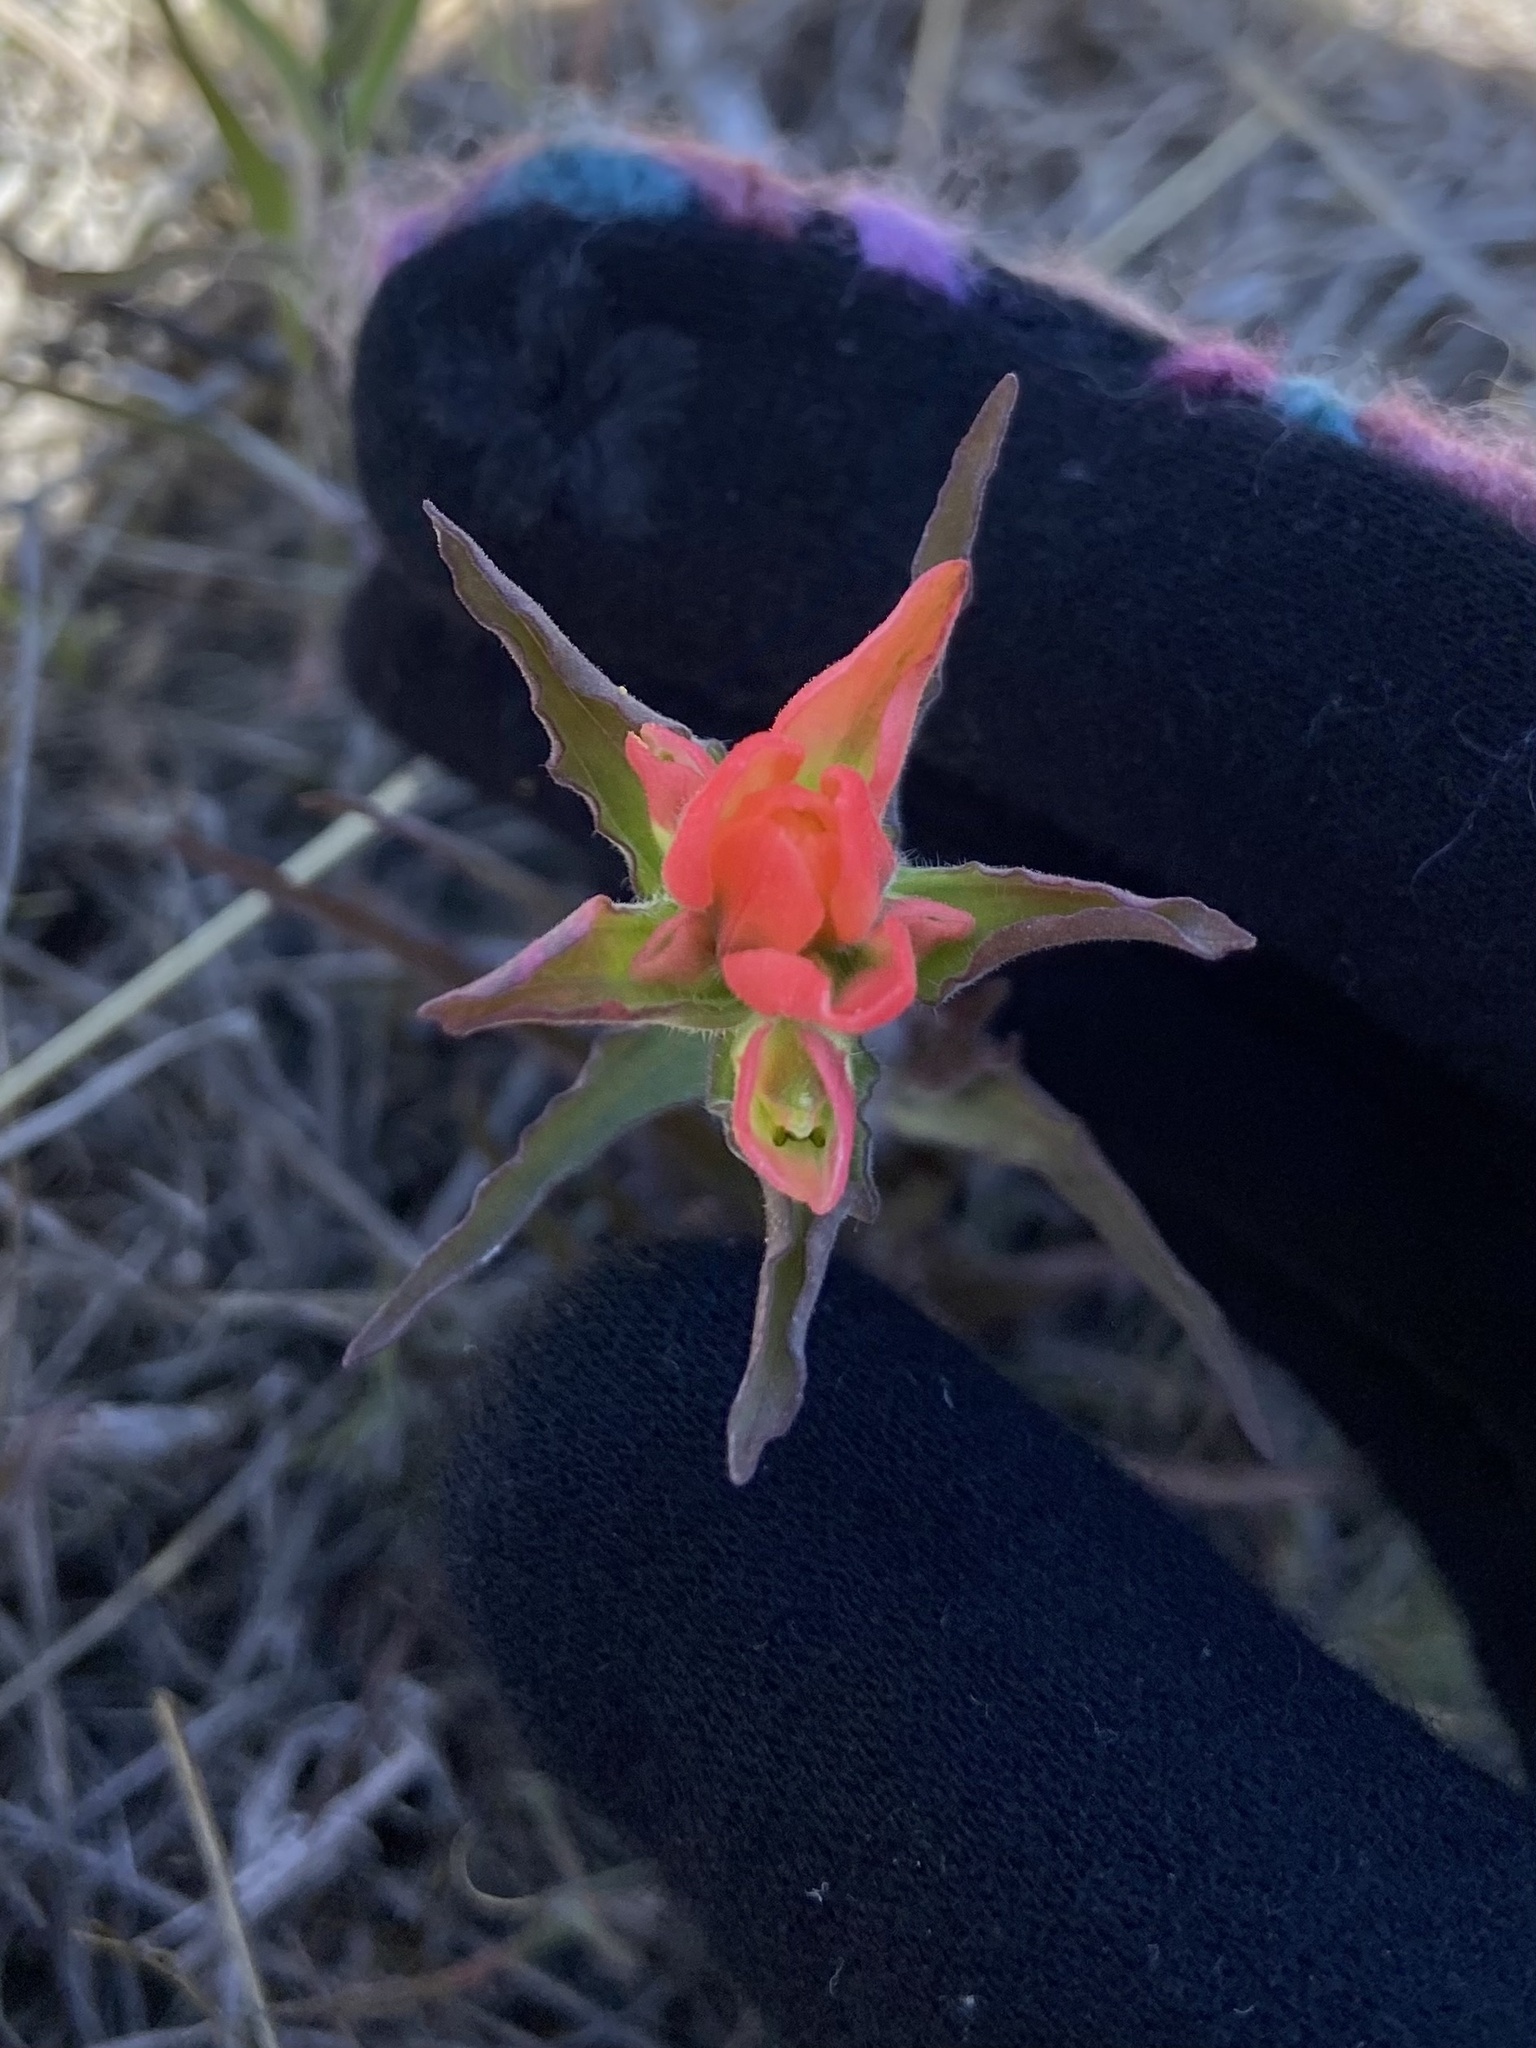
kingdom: Plantae
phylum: Tracheophyta
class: Magnoliopsida
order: Lamiales
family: Orobanchaceae
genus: Castilleja
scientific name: Castilleja indivisa
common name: Texas paintbrush
